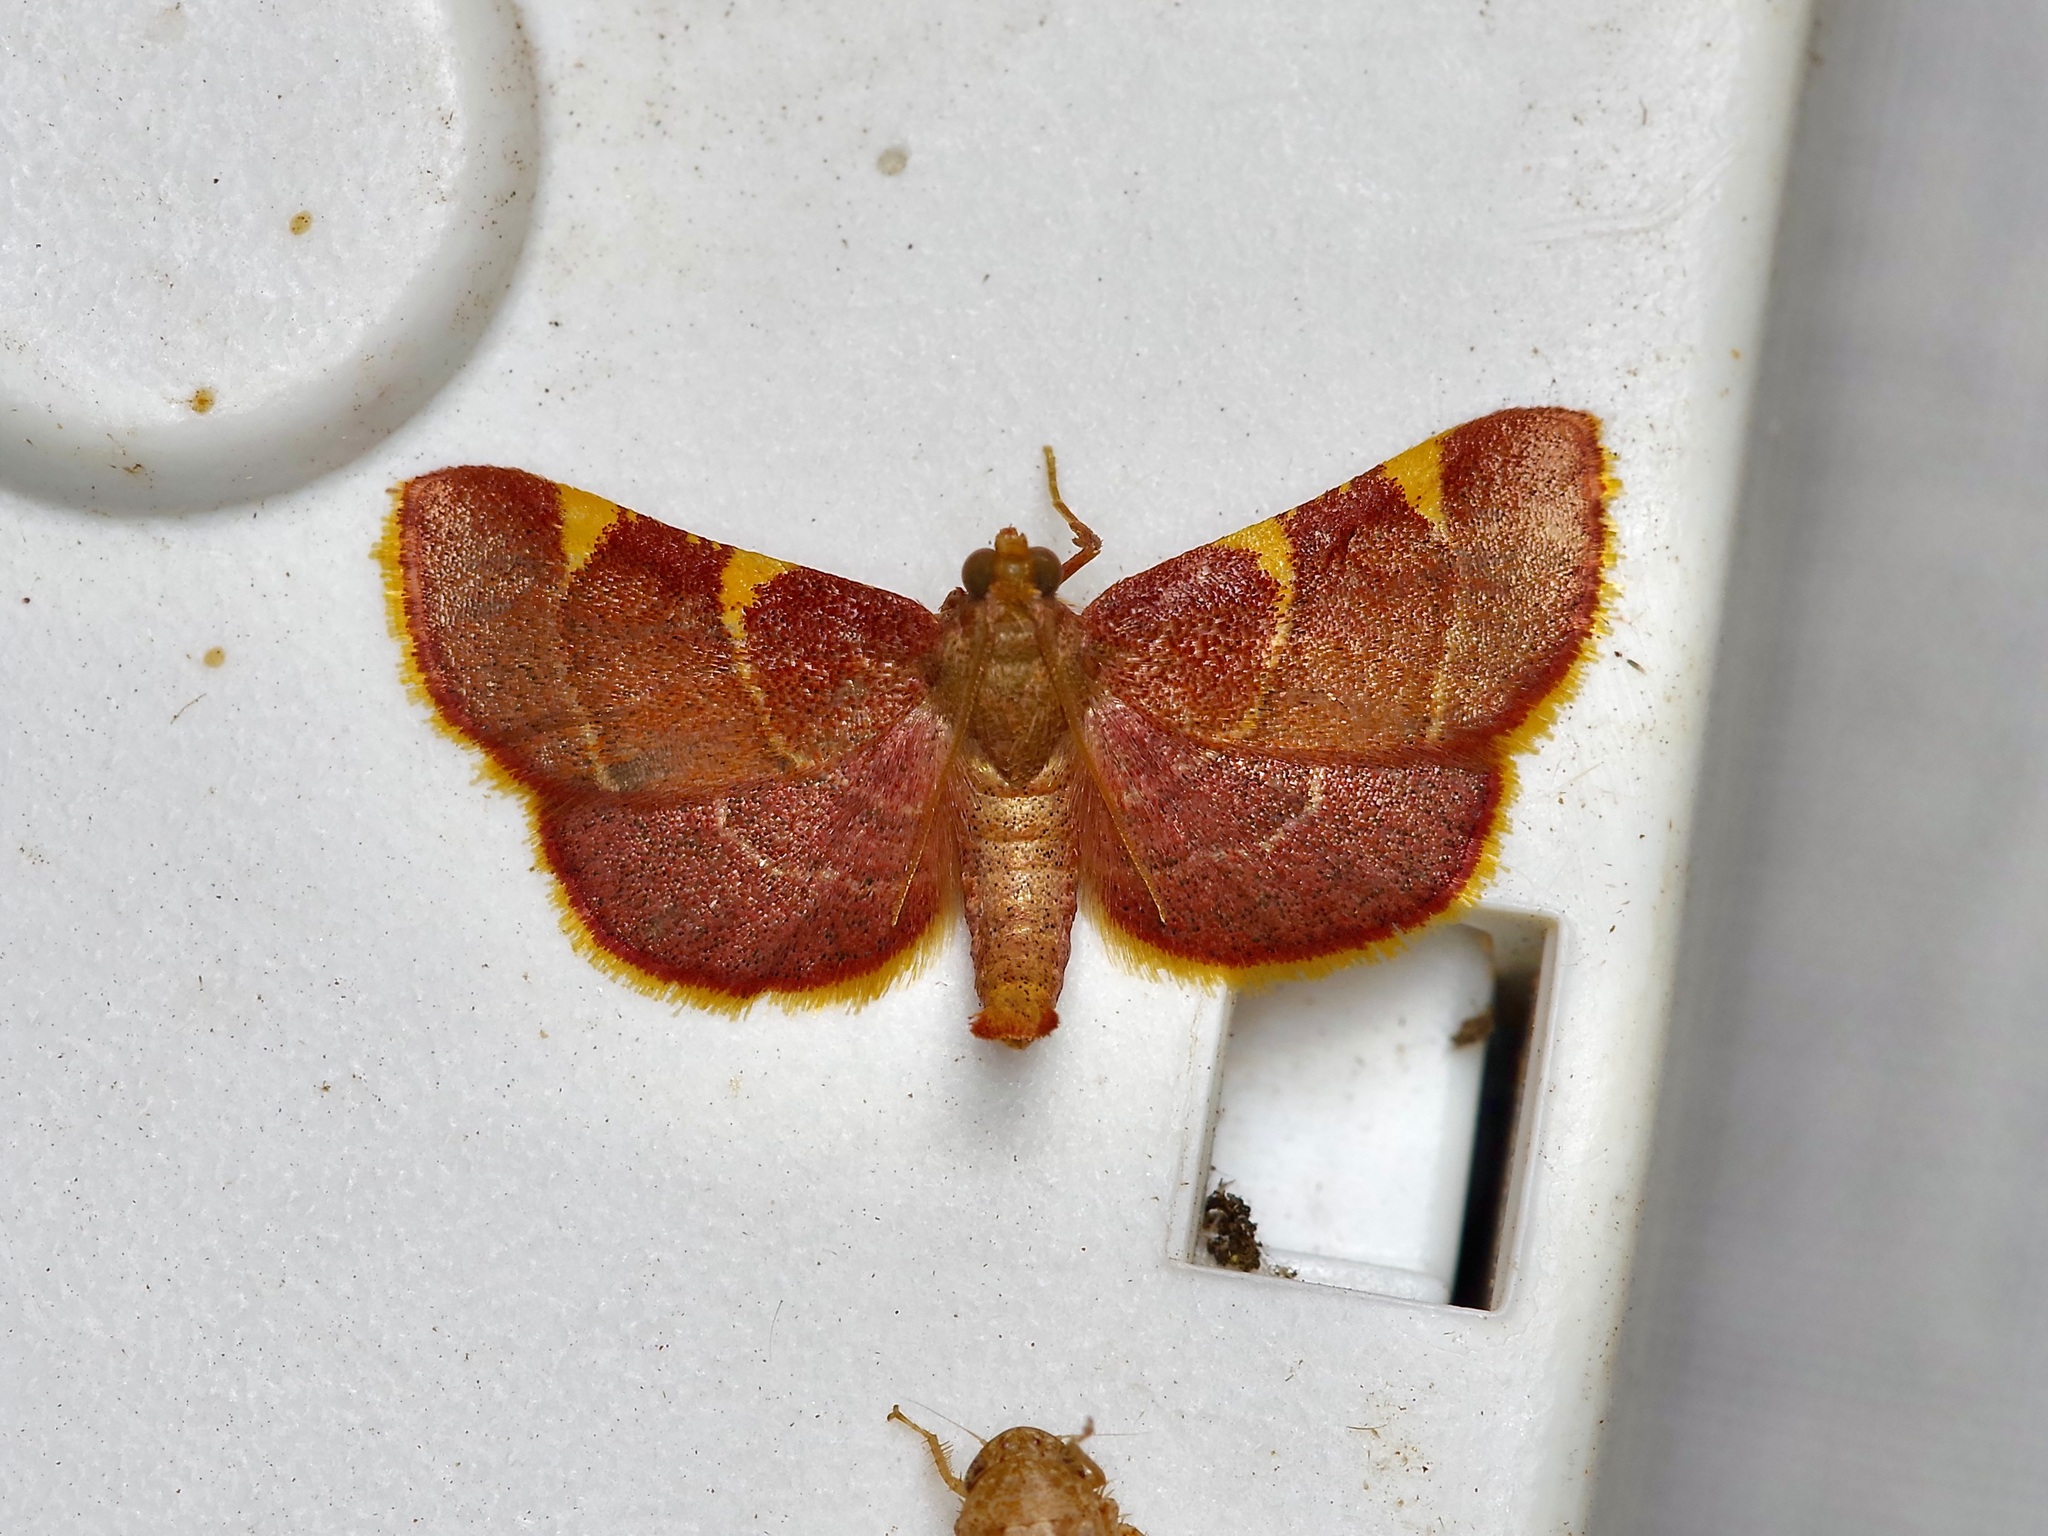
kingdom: Animalia
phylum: Arthropoda
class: Insecta
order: Lepidoptera
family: Pyralidae
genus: Hypsopygia
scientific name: Hypsopygia olinalis
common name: Yellow-fringed dolichomia moth
